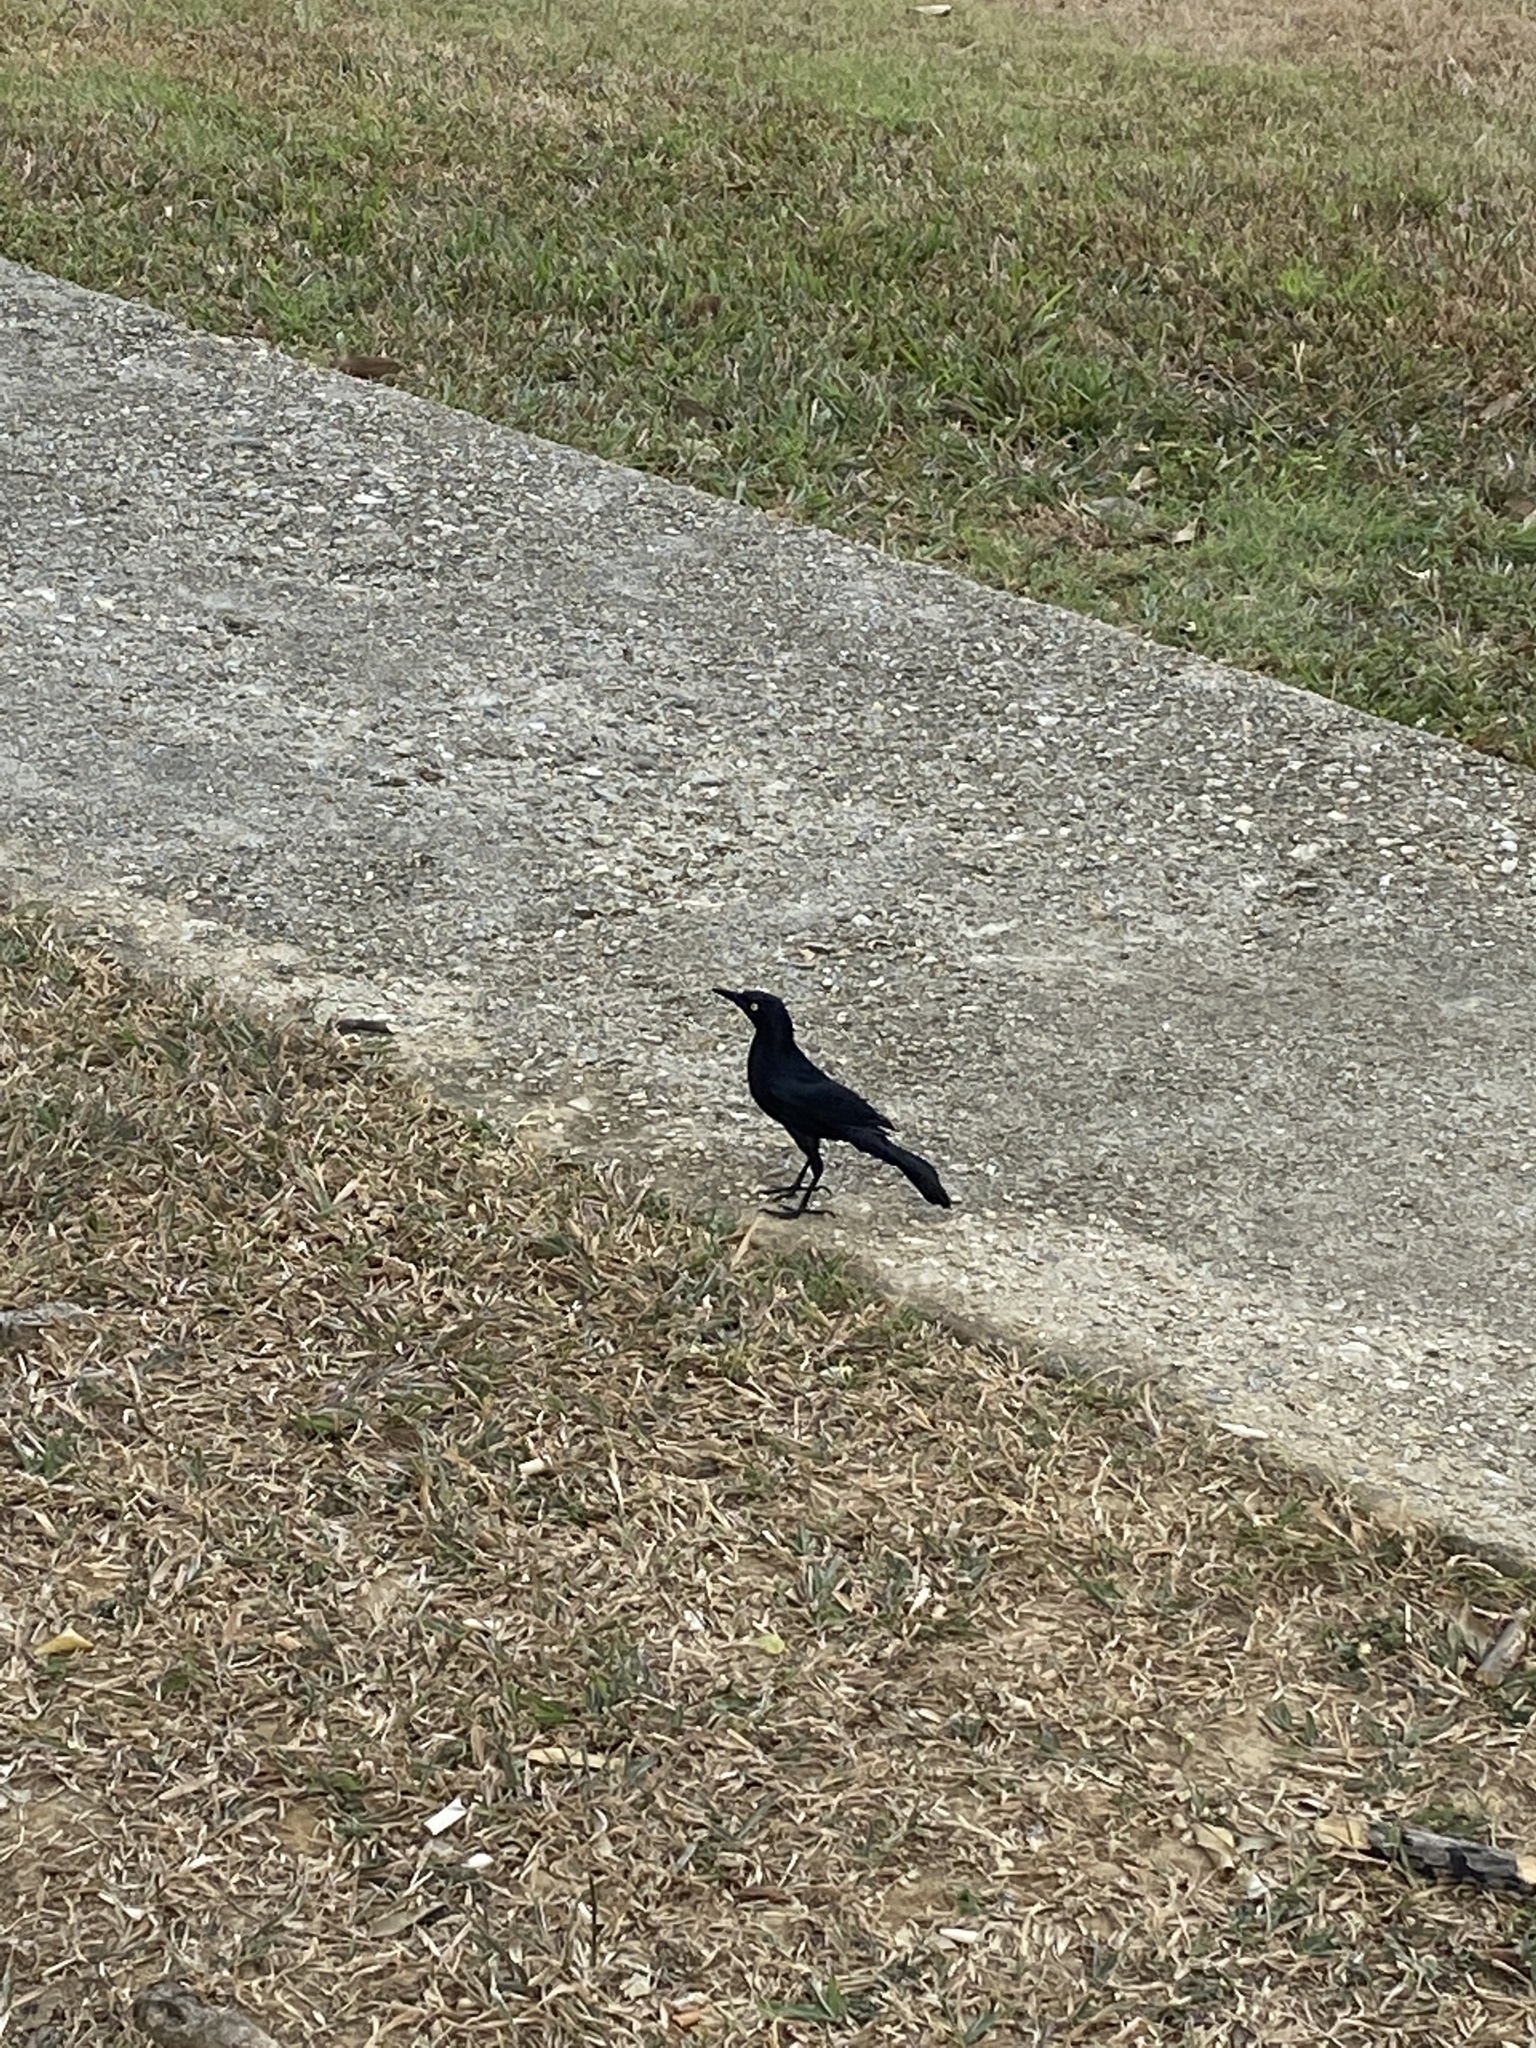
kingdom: Animalia
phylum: Chordata
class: Aves
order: Passeriformes
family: Icteridae
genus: Quiscalus
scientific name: Quiscalus lugubris
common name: Carib grackle
